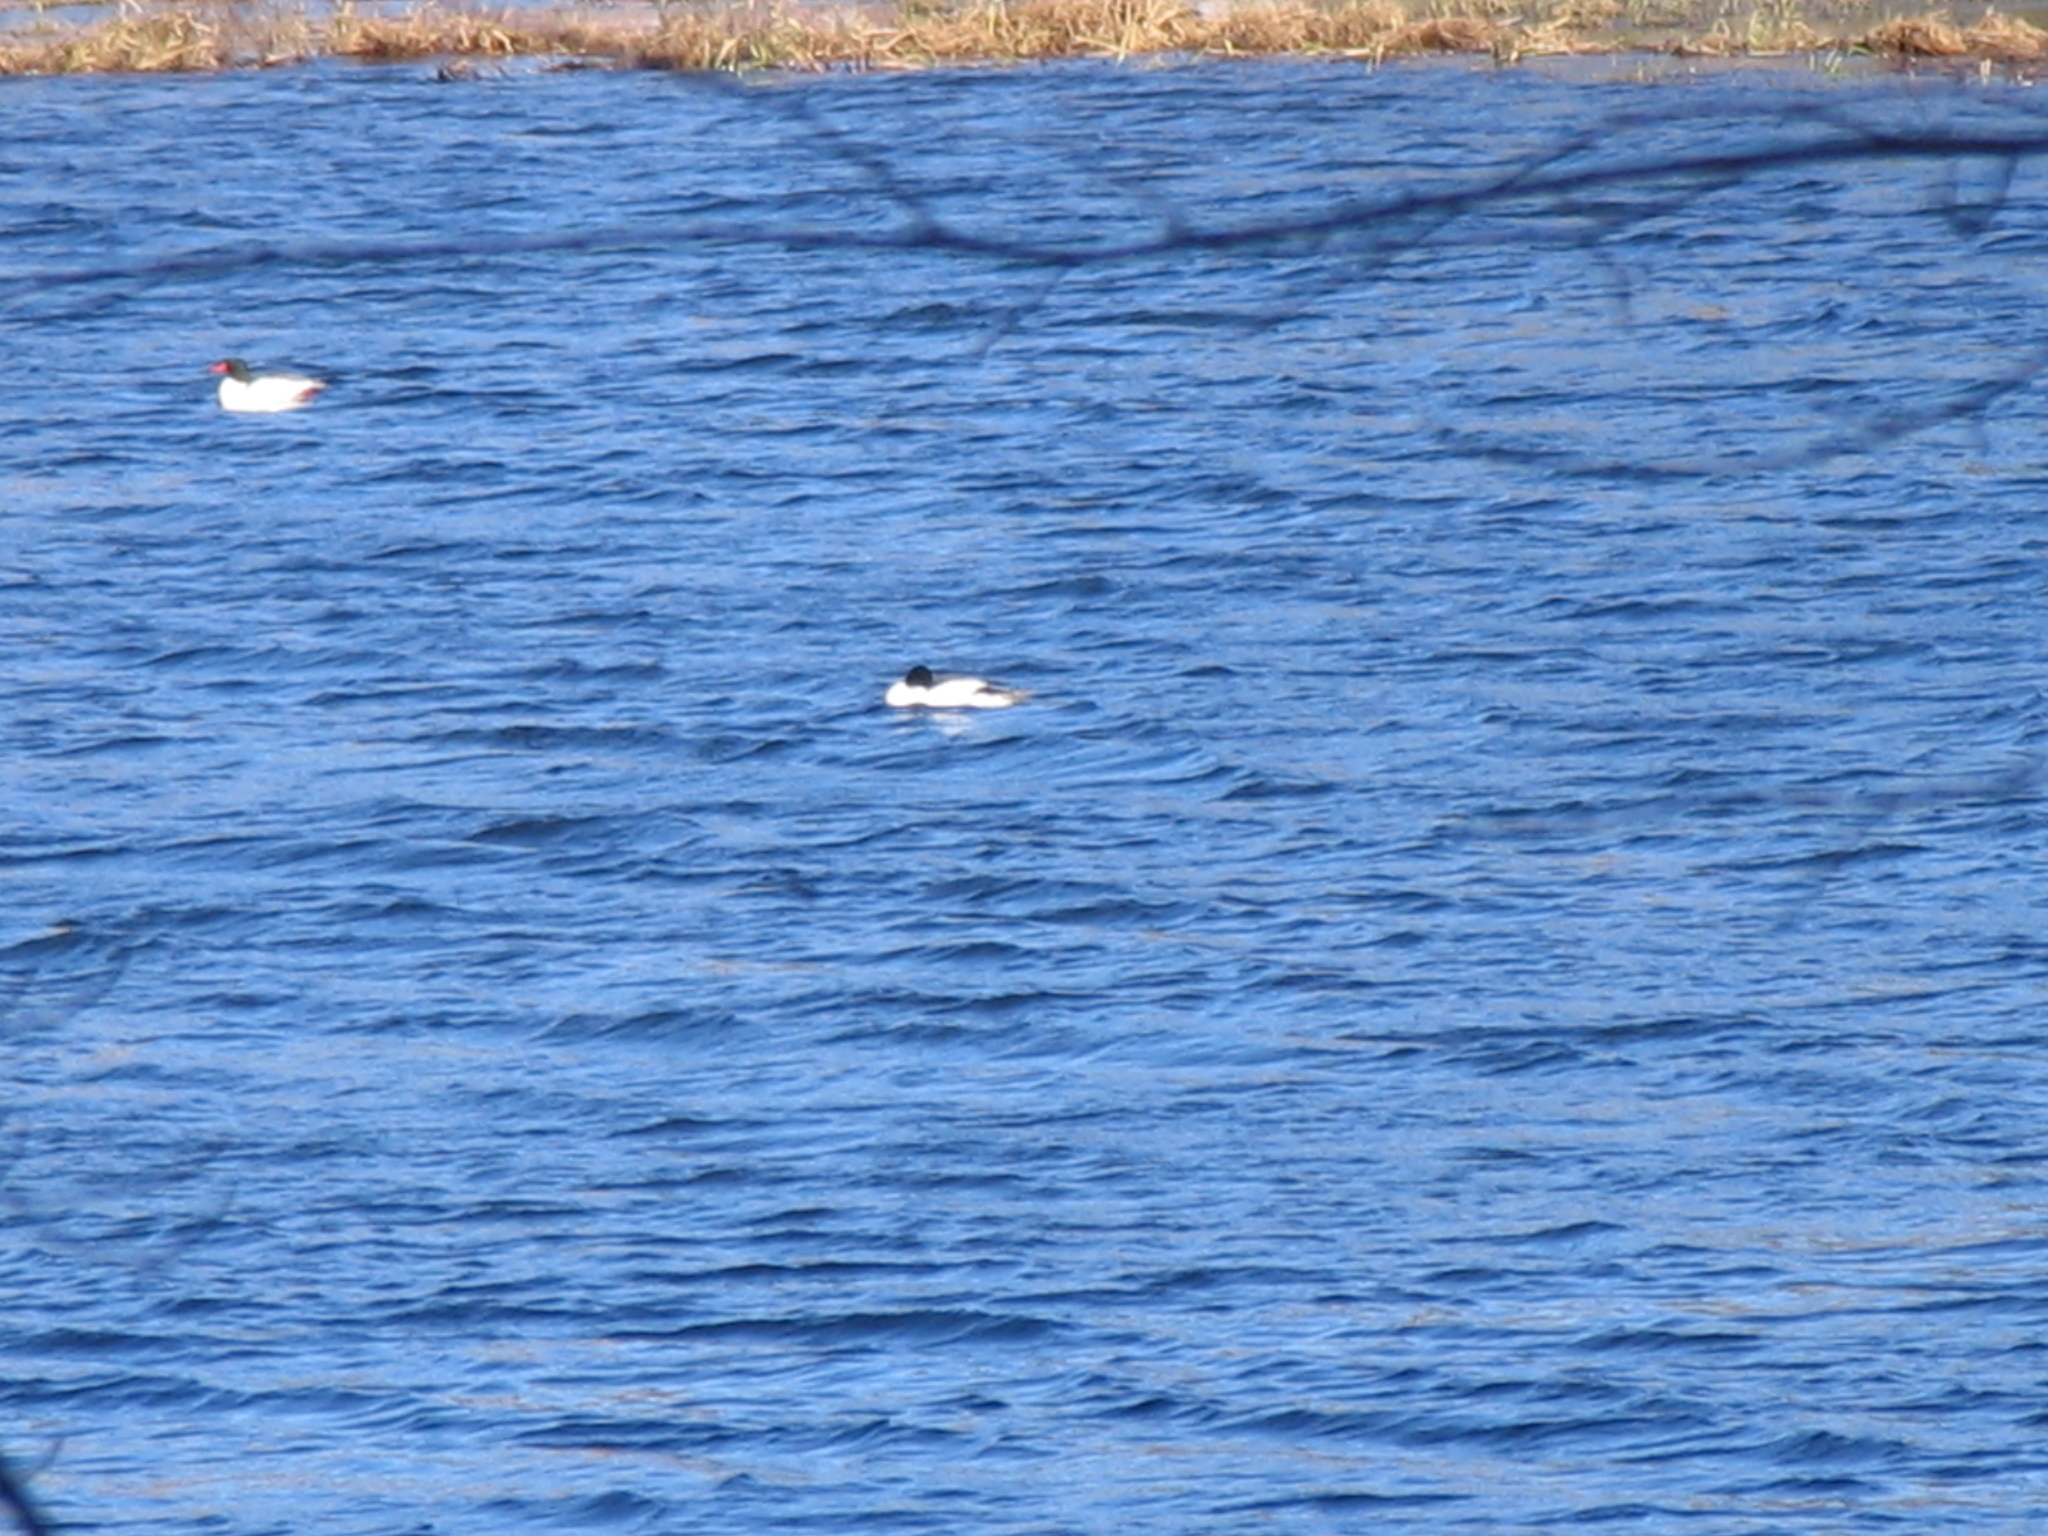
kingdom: Animalia
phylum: Chordata
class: Aves
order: Anseriformes
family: Anatidae
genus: Mergus
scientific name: Mergus merganser
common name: Common merganser
